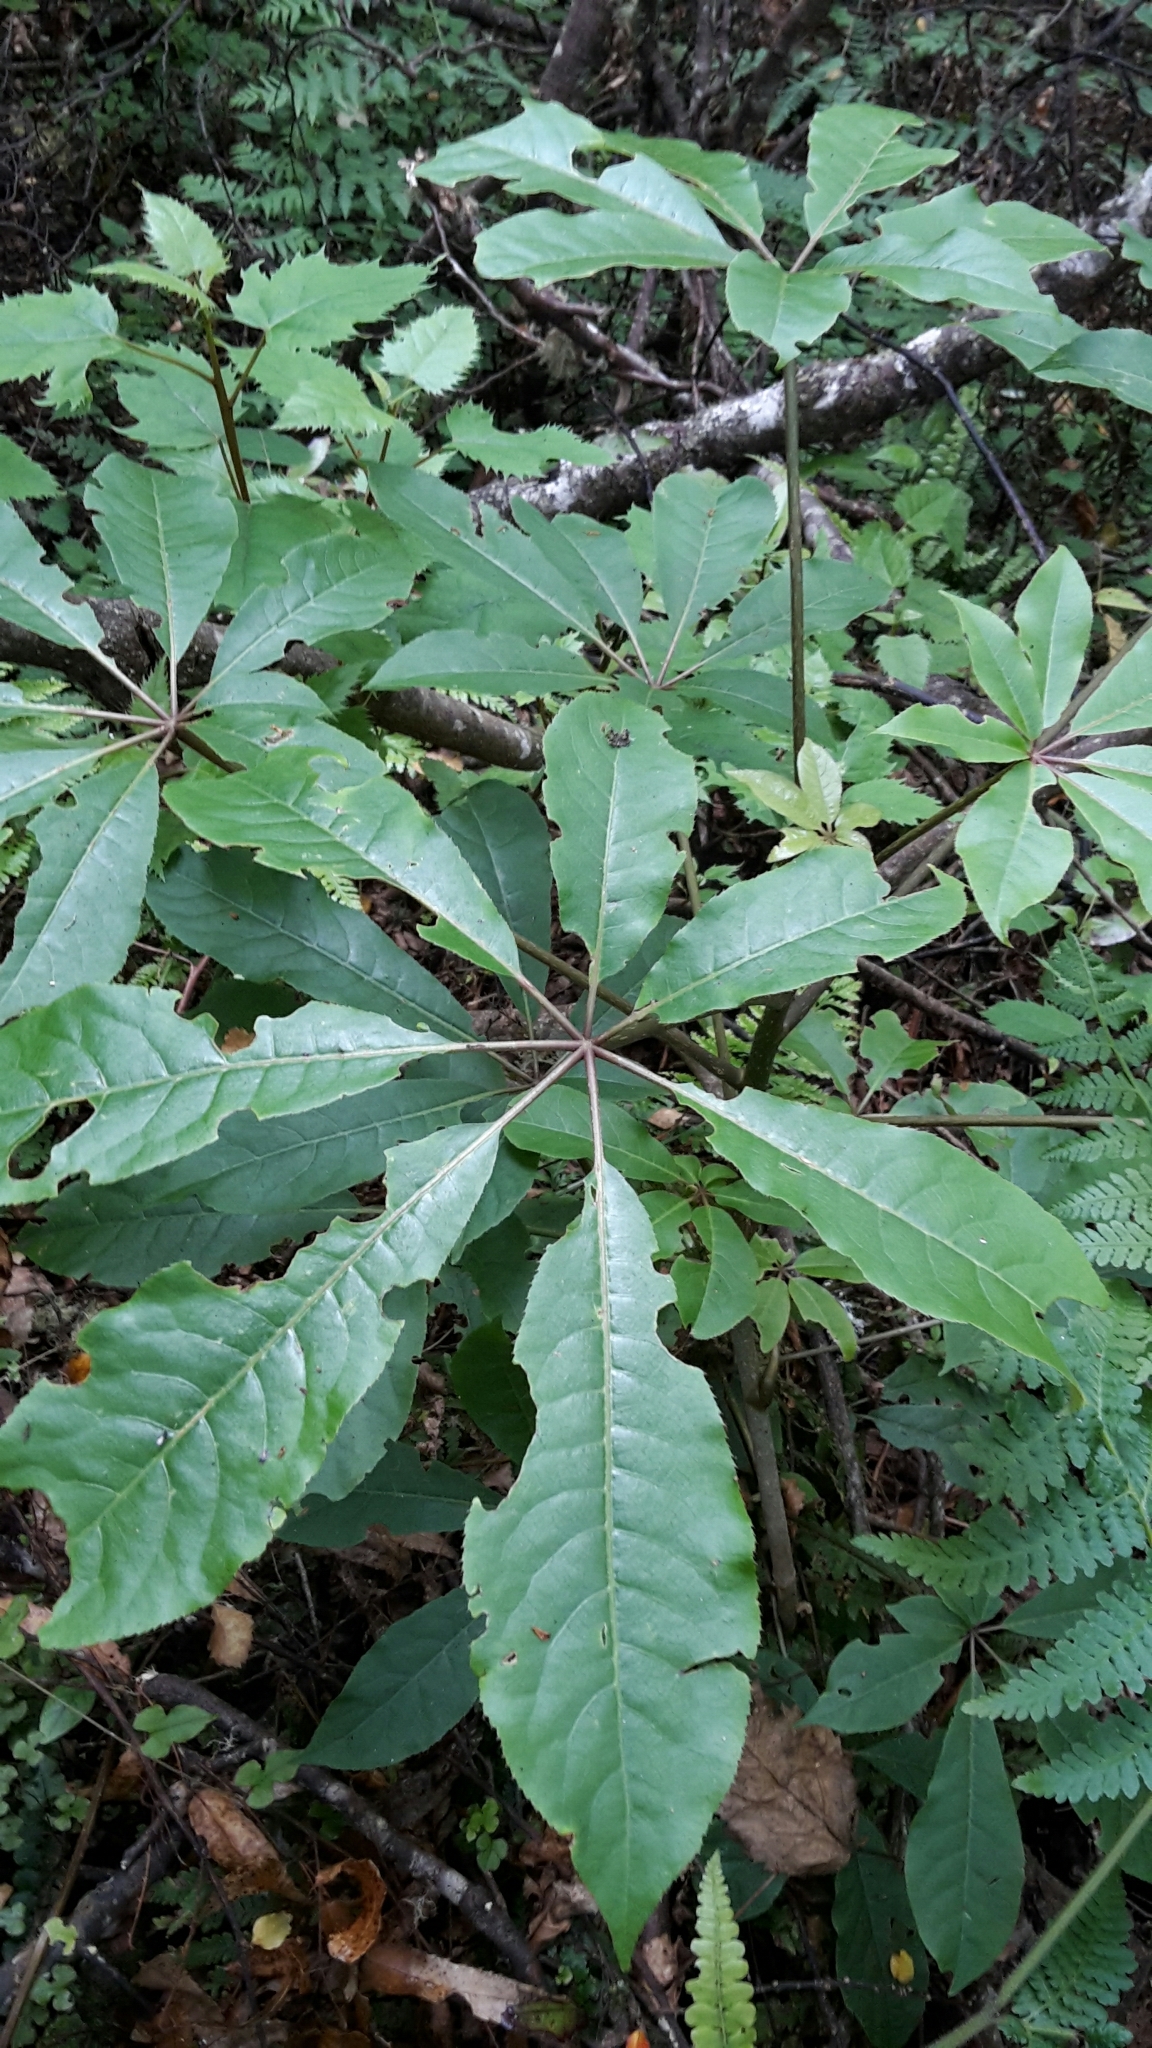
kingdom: Plantae
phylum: Tracheophyta
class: Magnoliopsida
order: Apiales
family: Araliaceae
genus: Schefflera
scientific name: Schefflera digitata
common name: Pate
